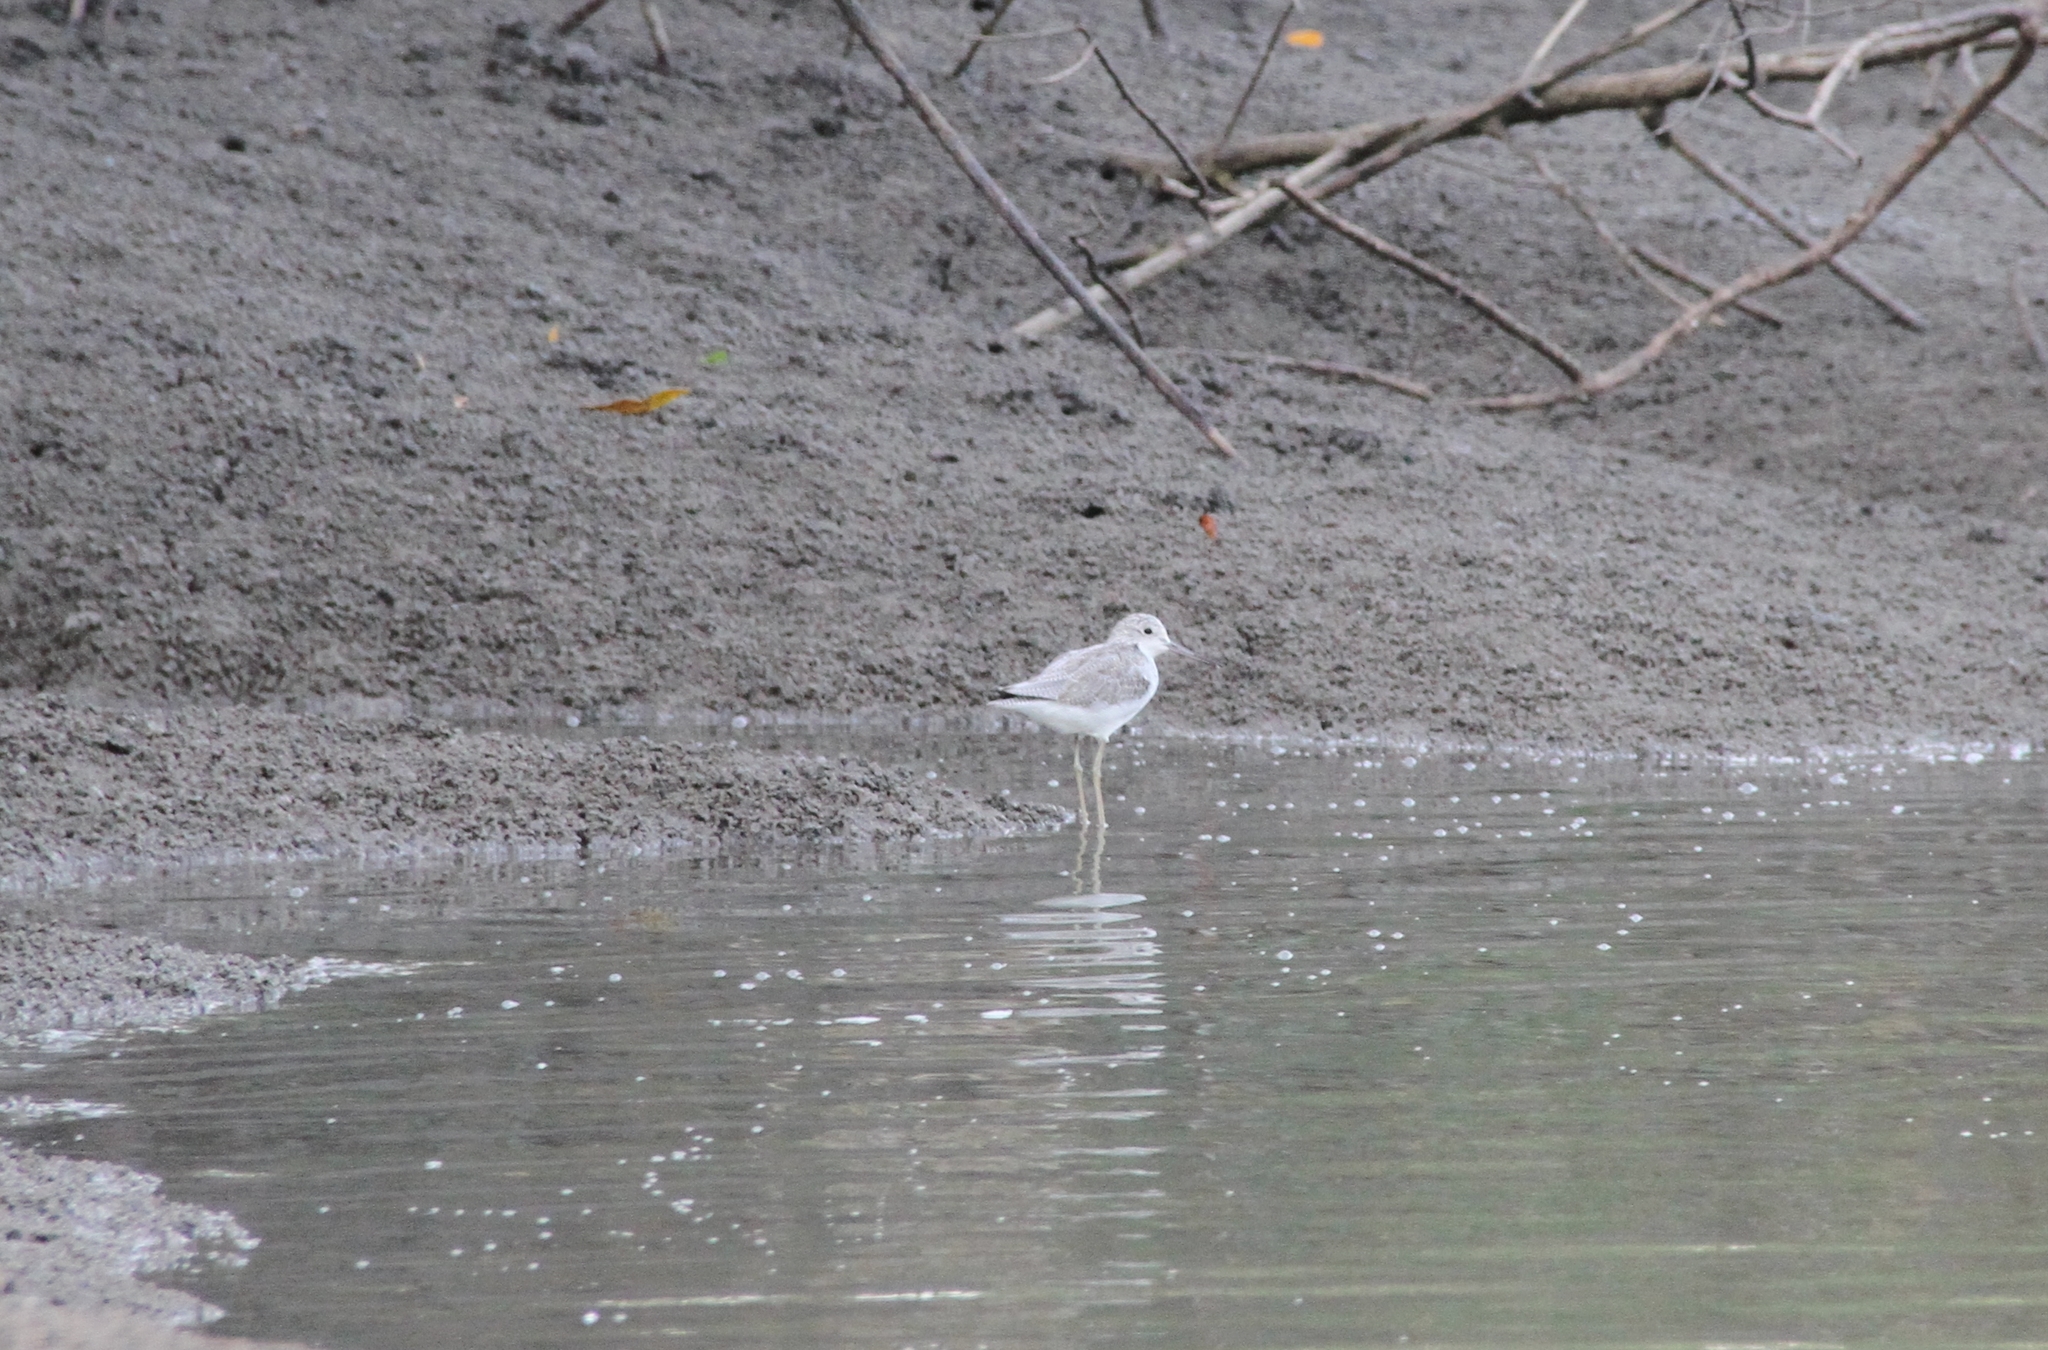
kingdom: Animalia
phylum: Chordata
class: Aves
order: Charadriiformes
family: Scolopacidae
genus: Tringa
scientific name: Tringa nebularia
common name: Common greenshank
